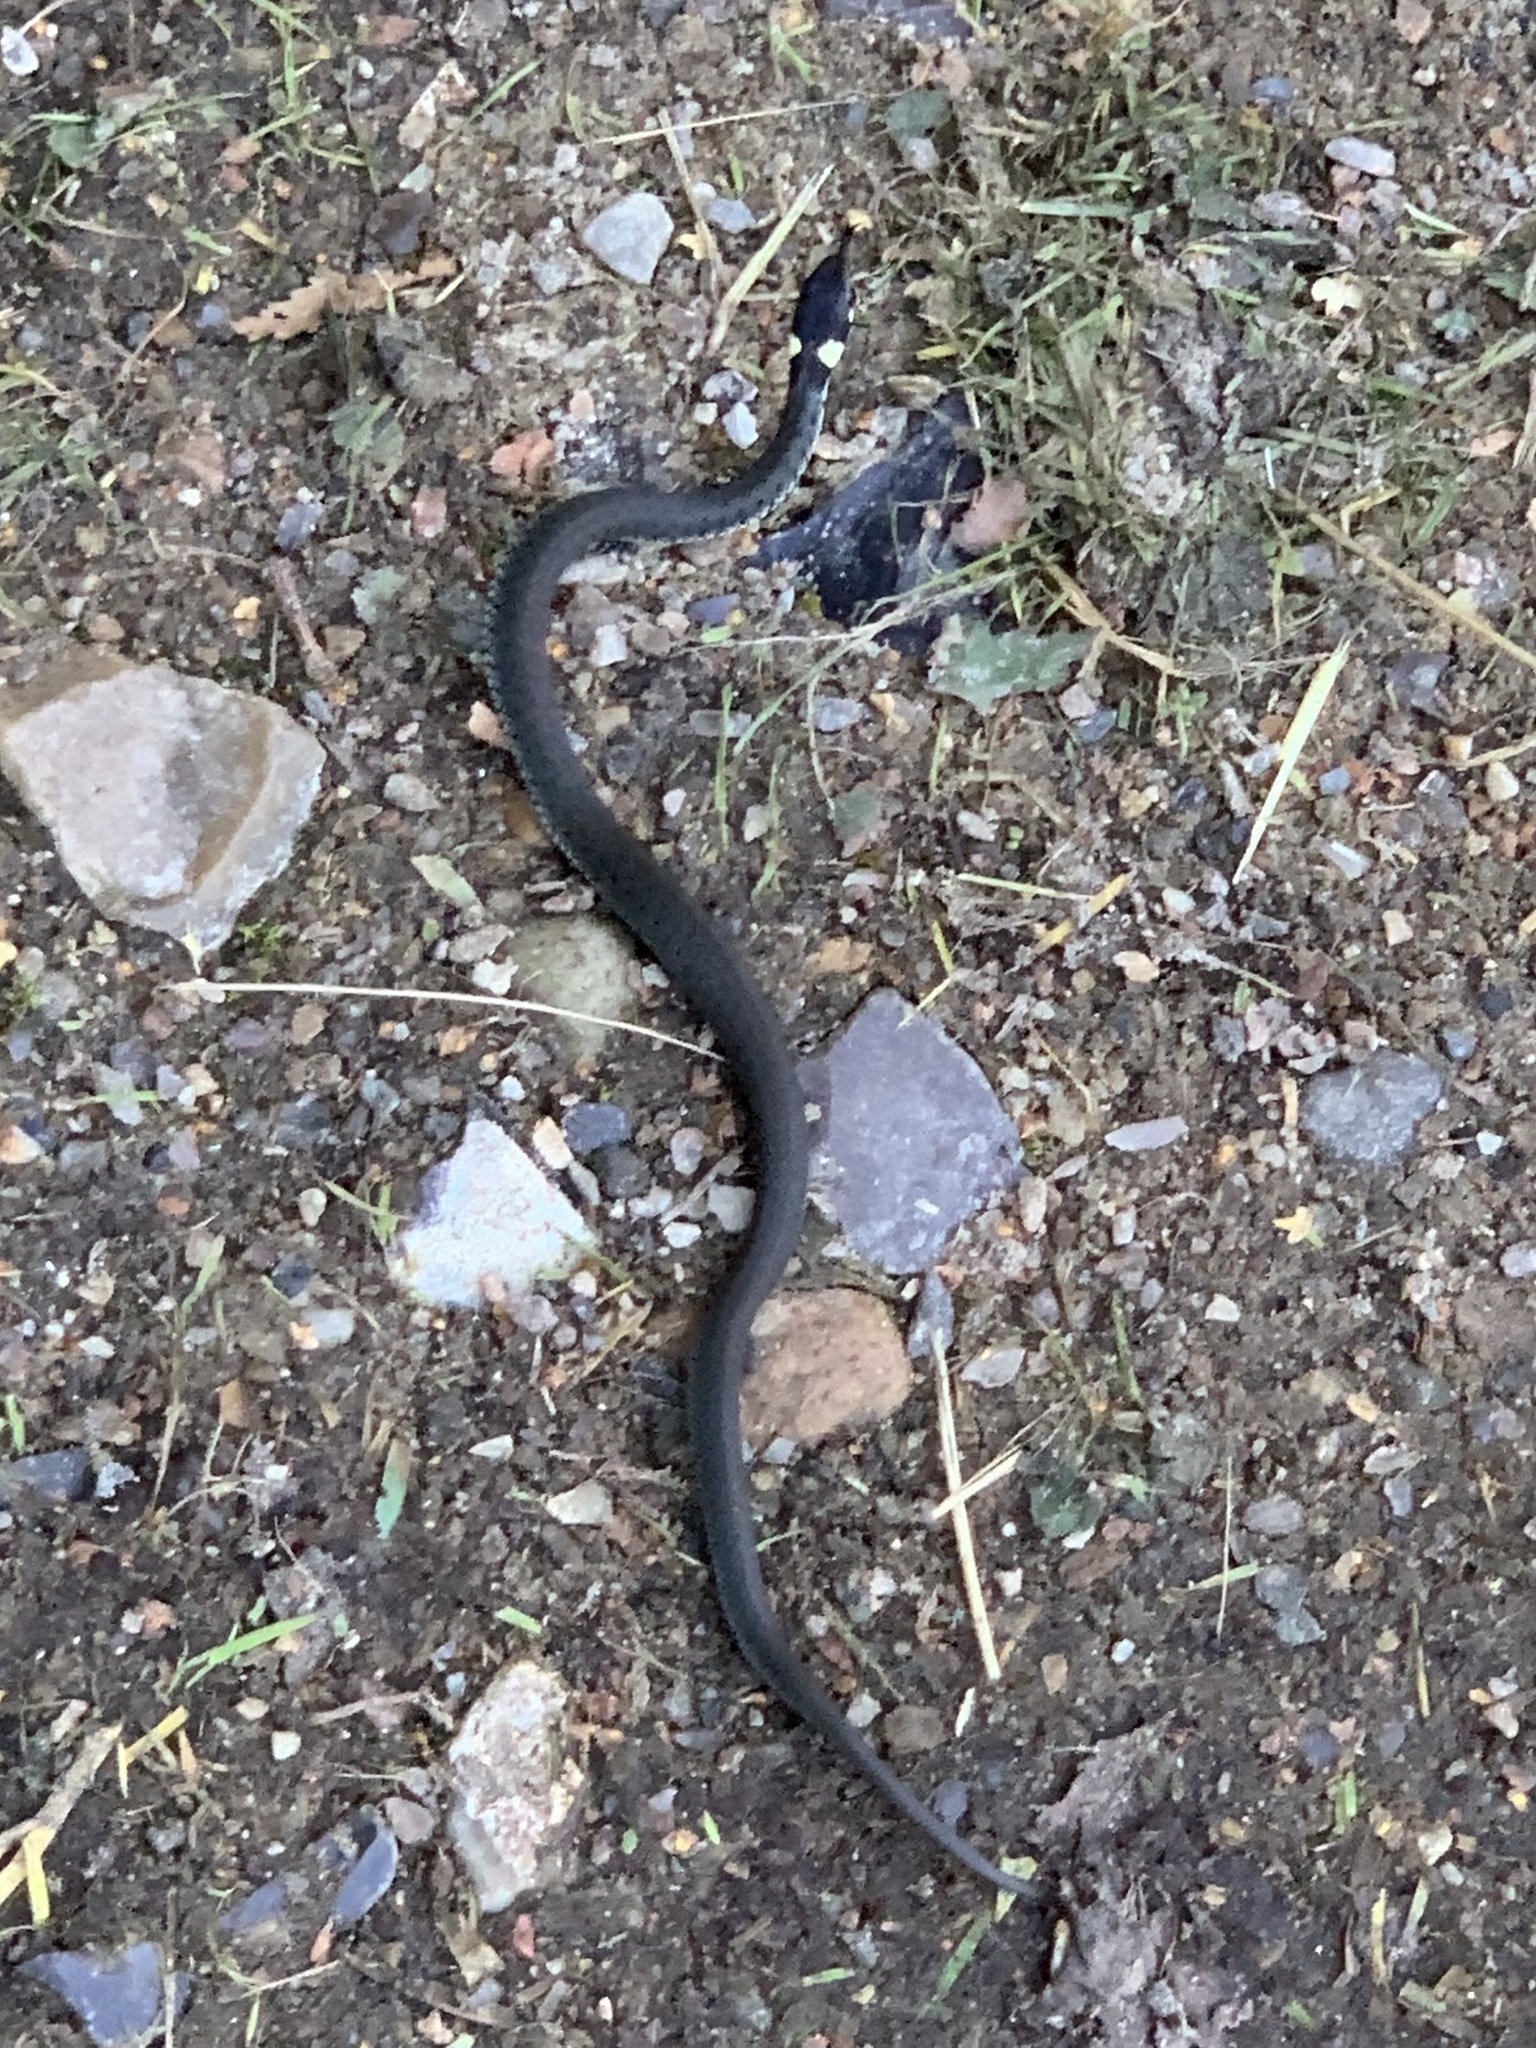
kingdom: Animalia
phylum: Chordata
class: Squamata
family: Colubridae
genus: Natrix
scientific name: Natrix natrix
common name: Grass snake
